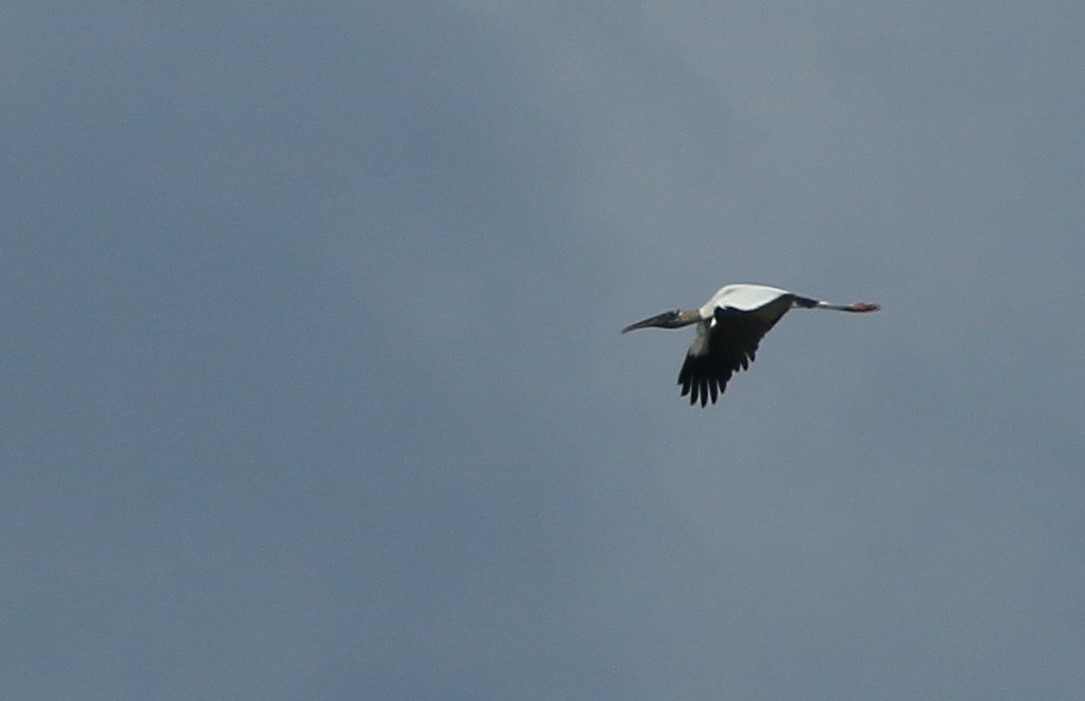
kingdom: Animalia
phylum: Chordata
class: Aves
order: Ciconiiformes
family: Ciconiidae
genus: Mycteria
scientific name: Mycteria americana
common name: Wood stork
